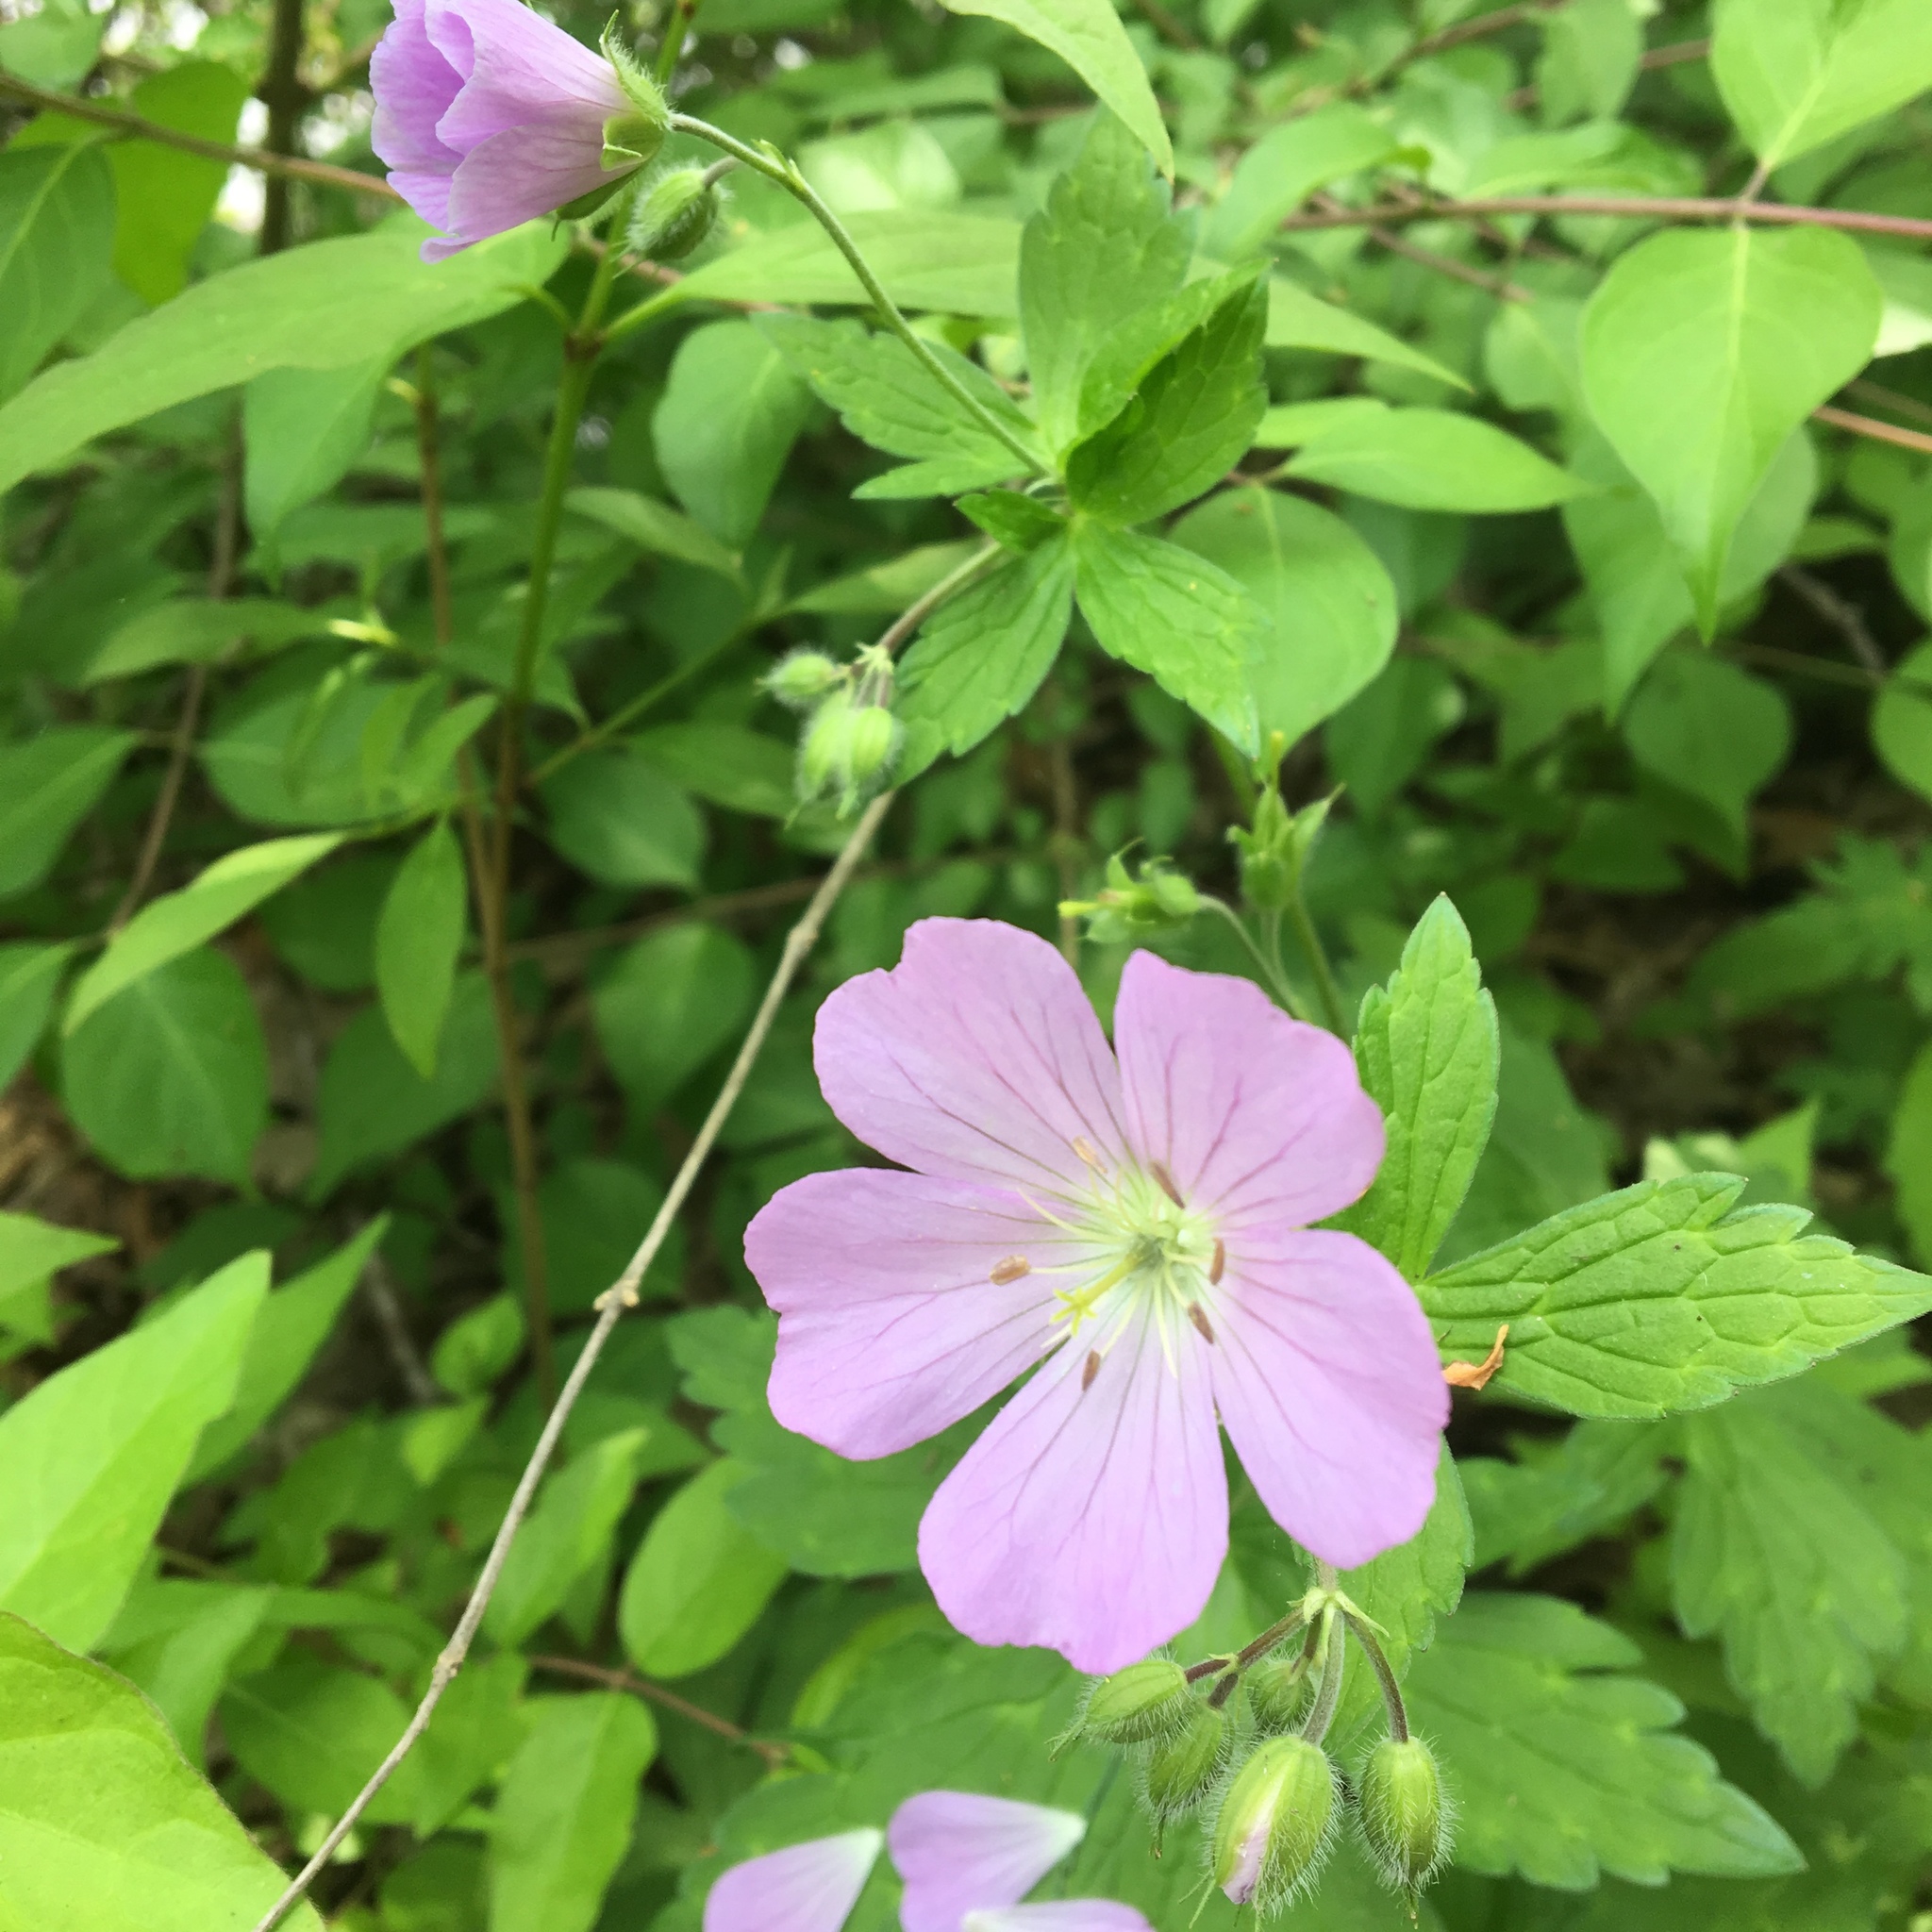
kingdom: Plantae
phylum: Tracheophyta
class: Magnoliopsida
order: Geraniales
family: Geraniaceae
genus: Geranium
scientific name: Geranium maculatum
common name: Spotted geranium
